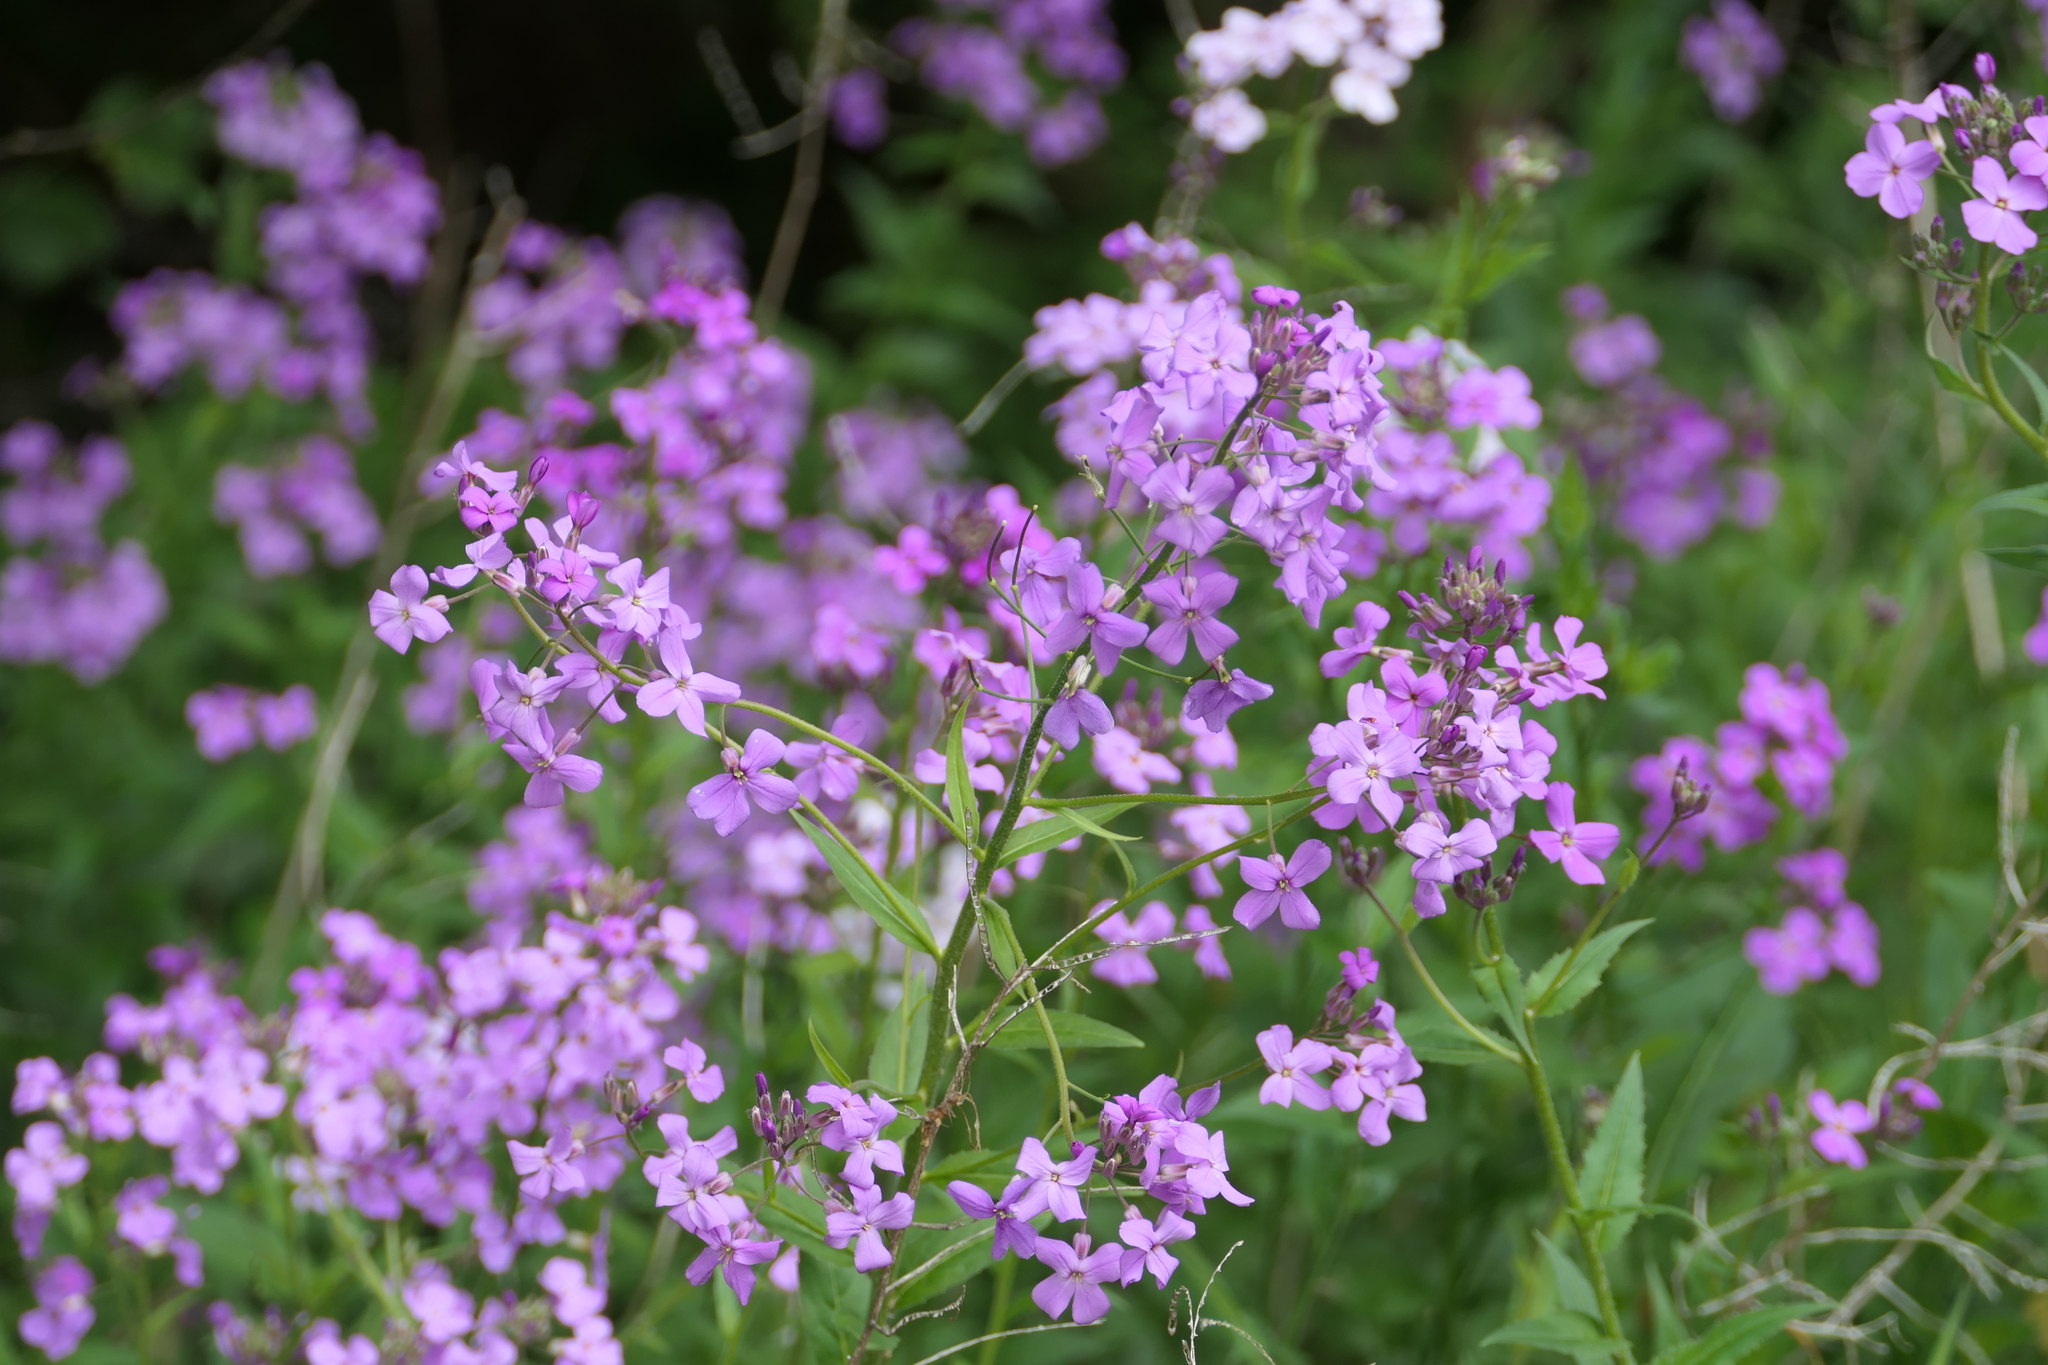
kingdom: Plantae
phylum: Tracheophyta
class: Magnoliopsida
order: Brassicales
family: Brassicaceae
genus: Hesperis
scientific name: Hesperis matronalis
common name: Dame's-violet
